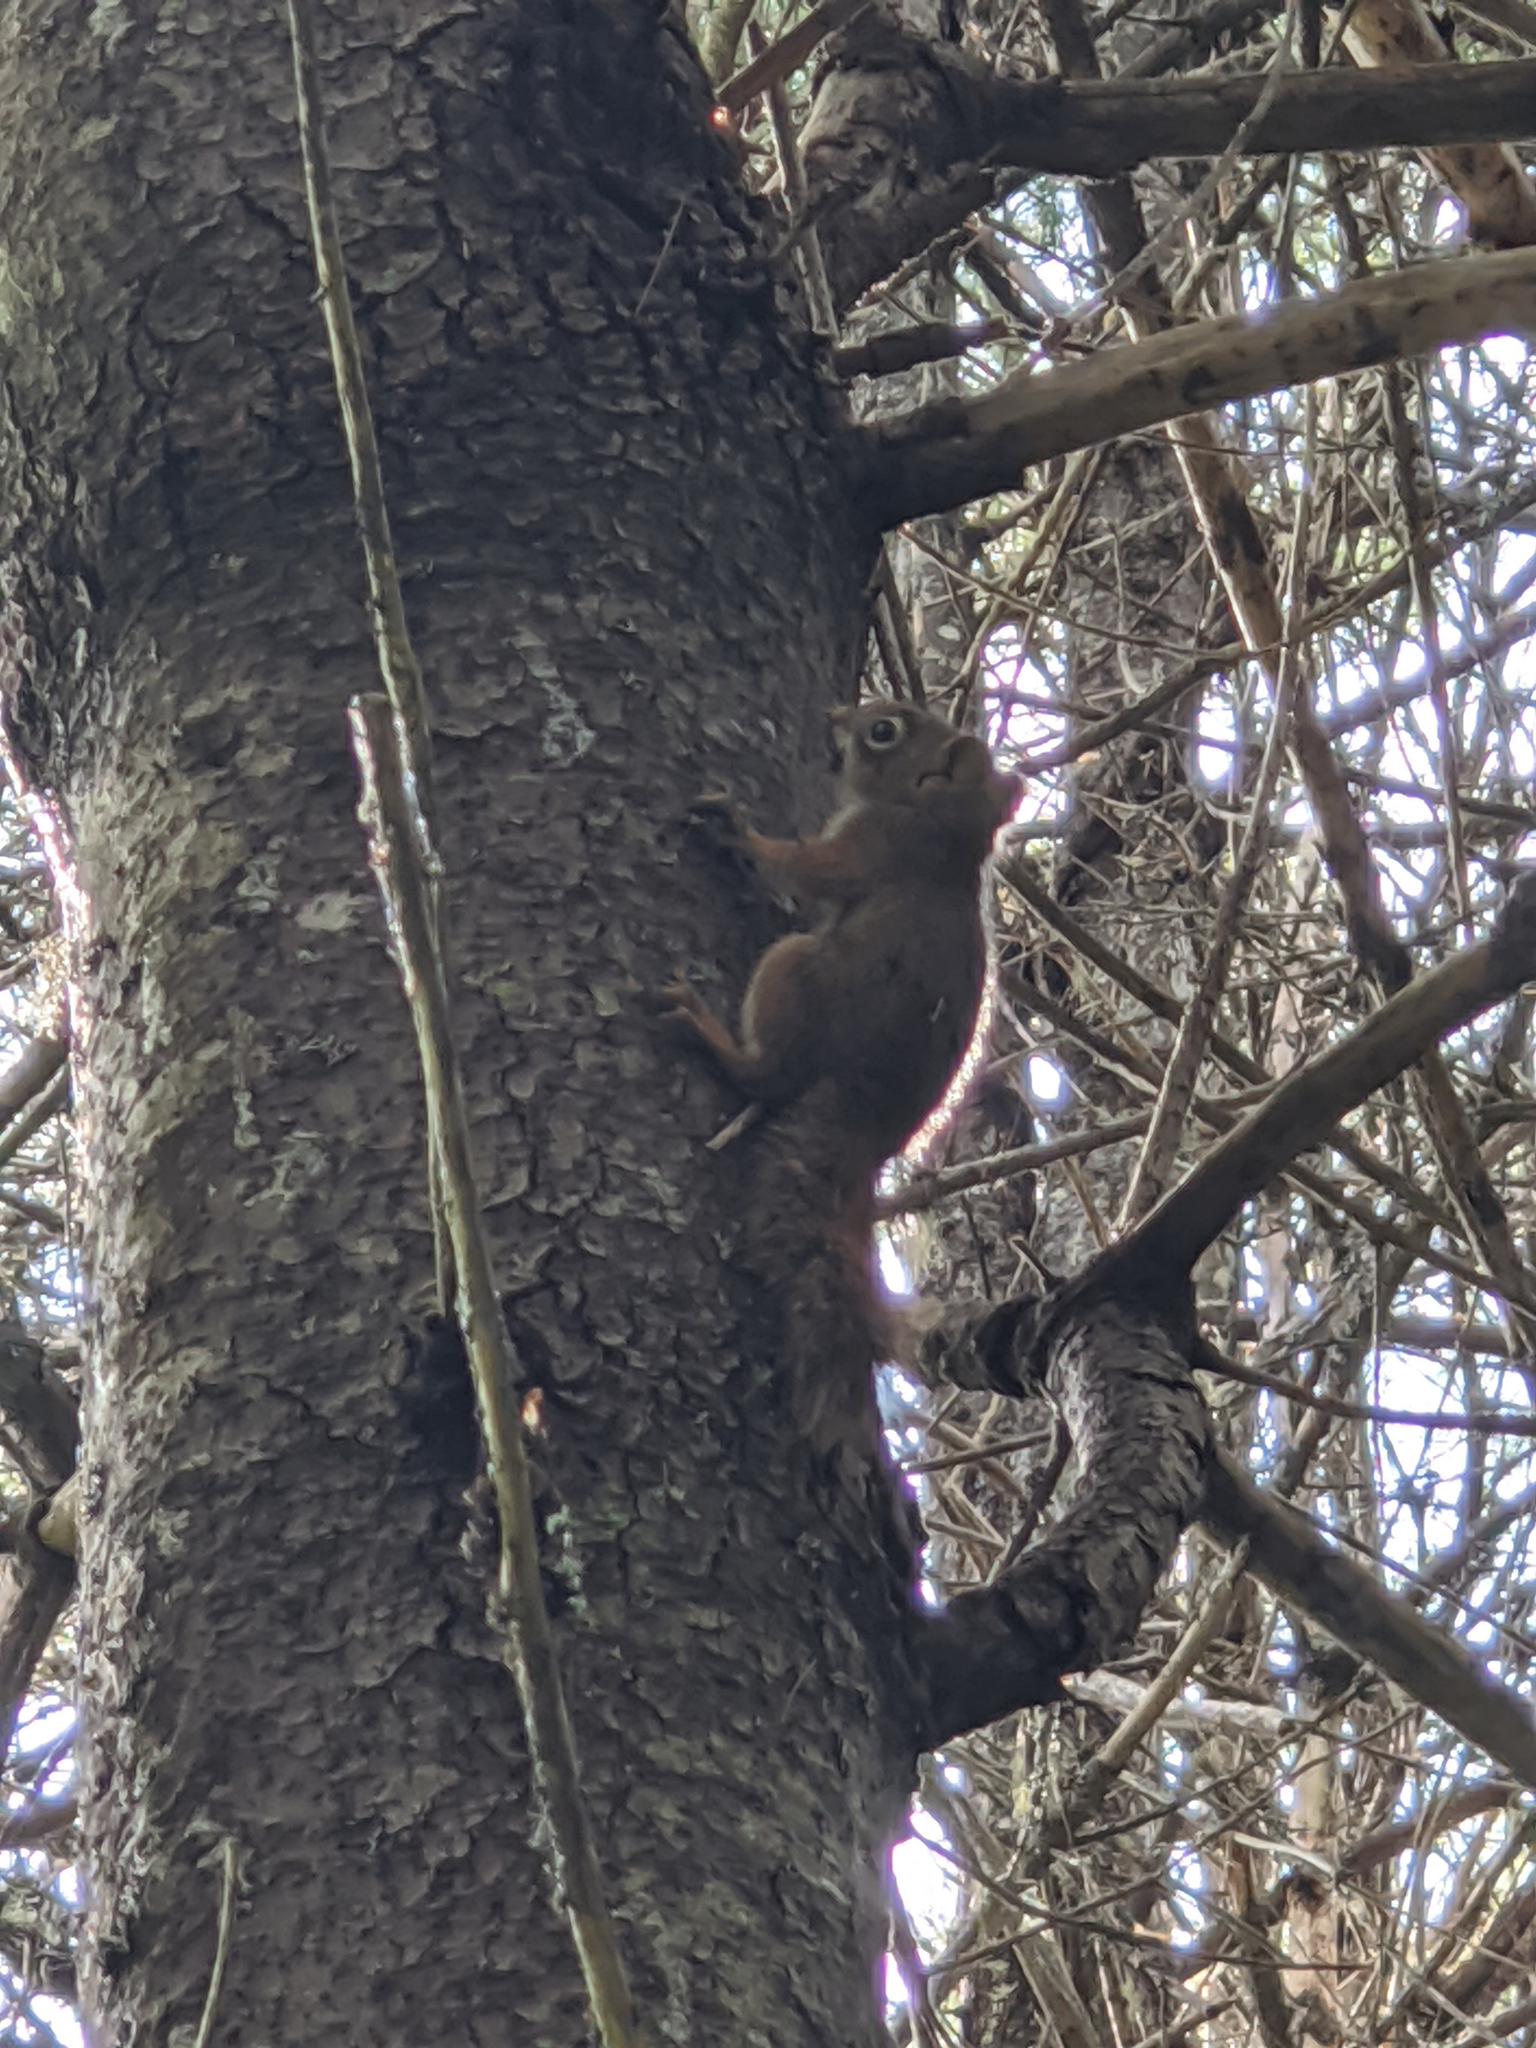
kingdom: Animalia
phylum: Chordata
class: Mammalia
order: Rodentia
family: Sciuridae
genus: Tamiasciurus
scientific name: Tamiasciurus hudsonicus
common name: Red squirrel
